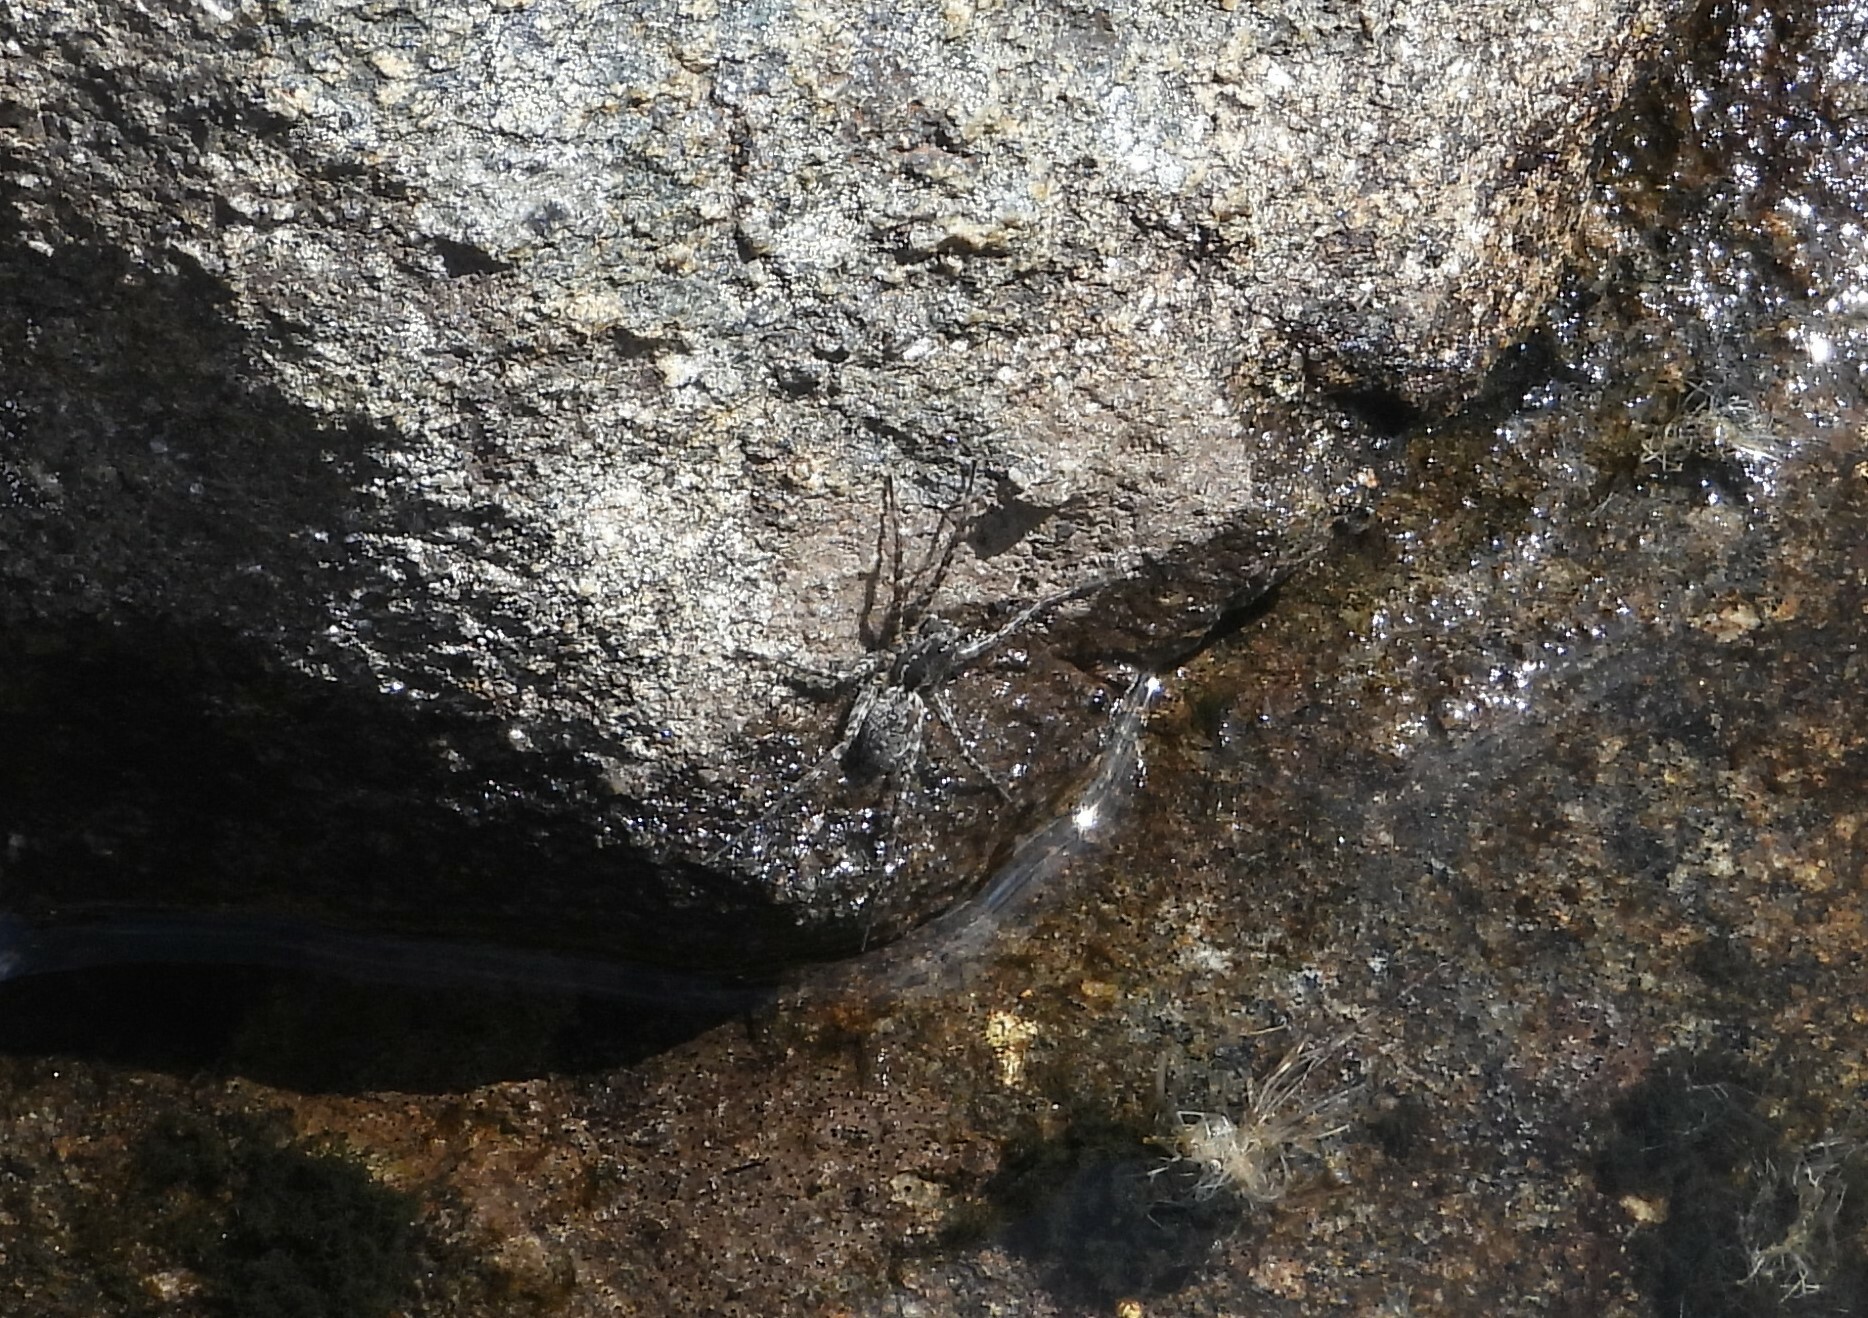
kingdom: Animalia
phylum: Arthropoda
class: Arachnida
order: Araneae
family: Lycosidae
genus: Pardosa
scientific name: Pardosa groenlandica
